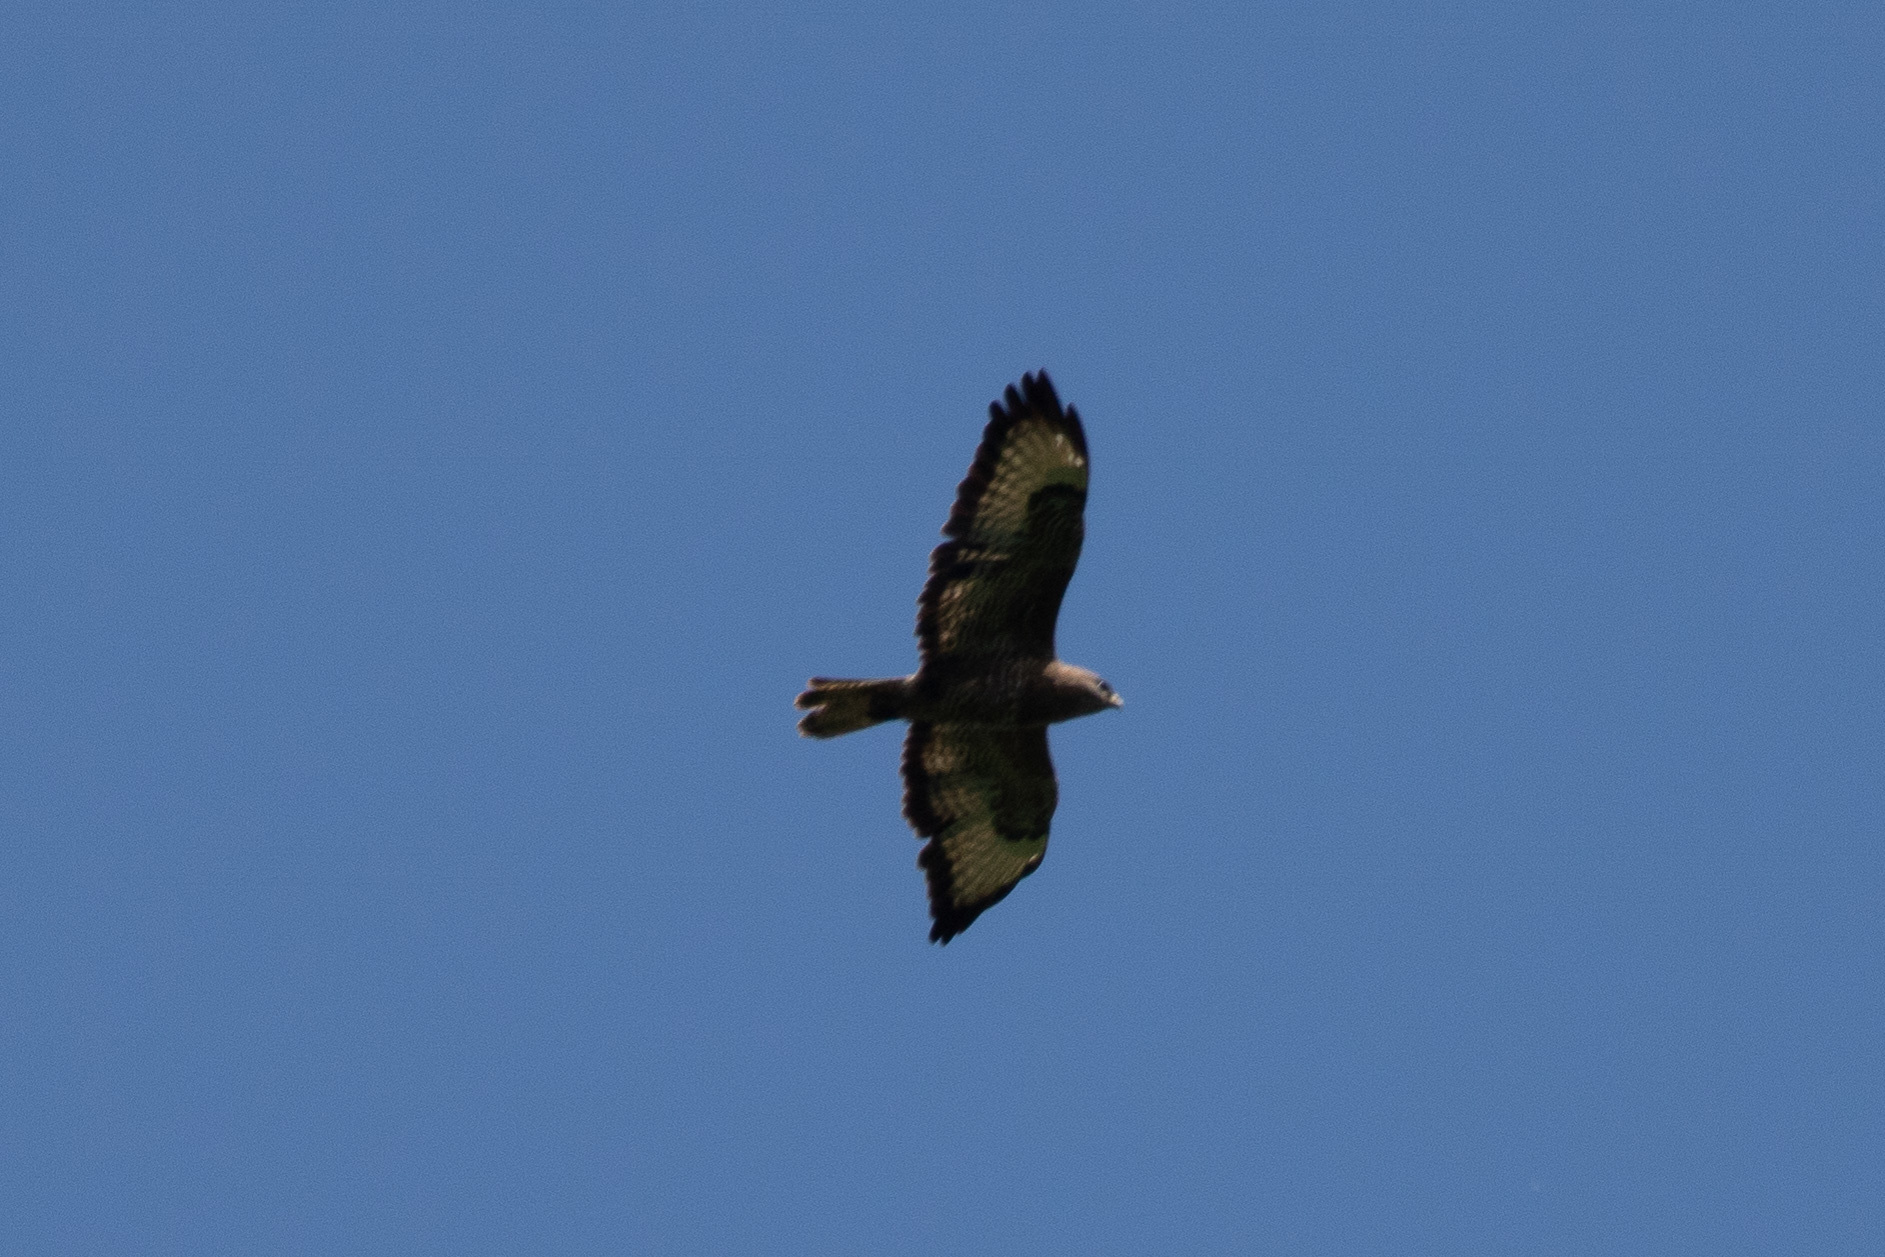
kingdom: Animalia
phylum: Chordata
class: Aves
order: Accipitriformes
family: Accipitridae
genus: Buteo
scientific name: Buteo buteo
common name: Common buzzard
